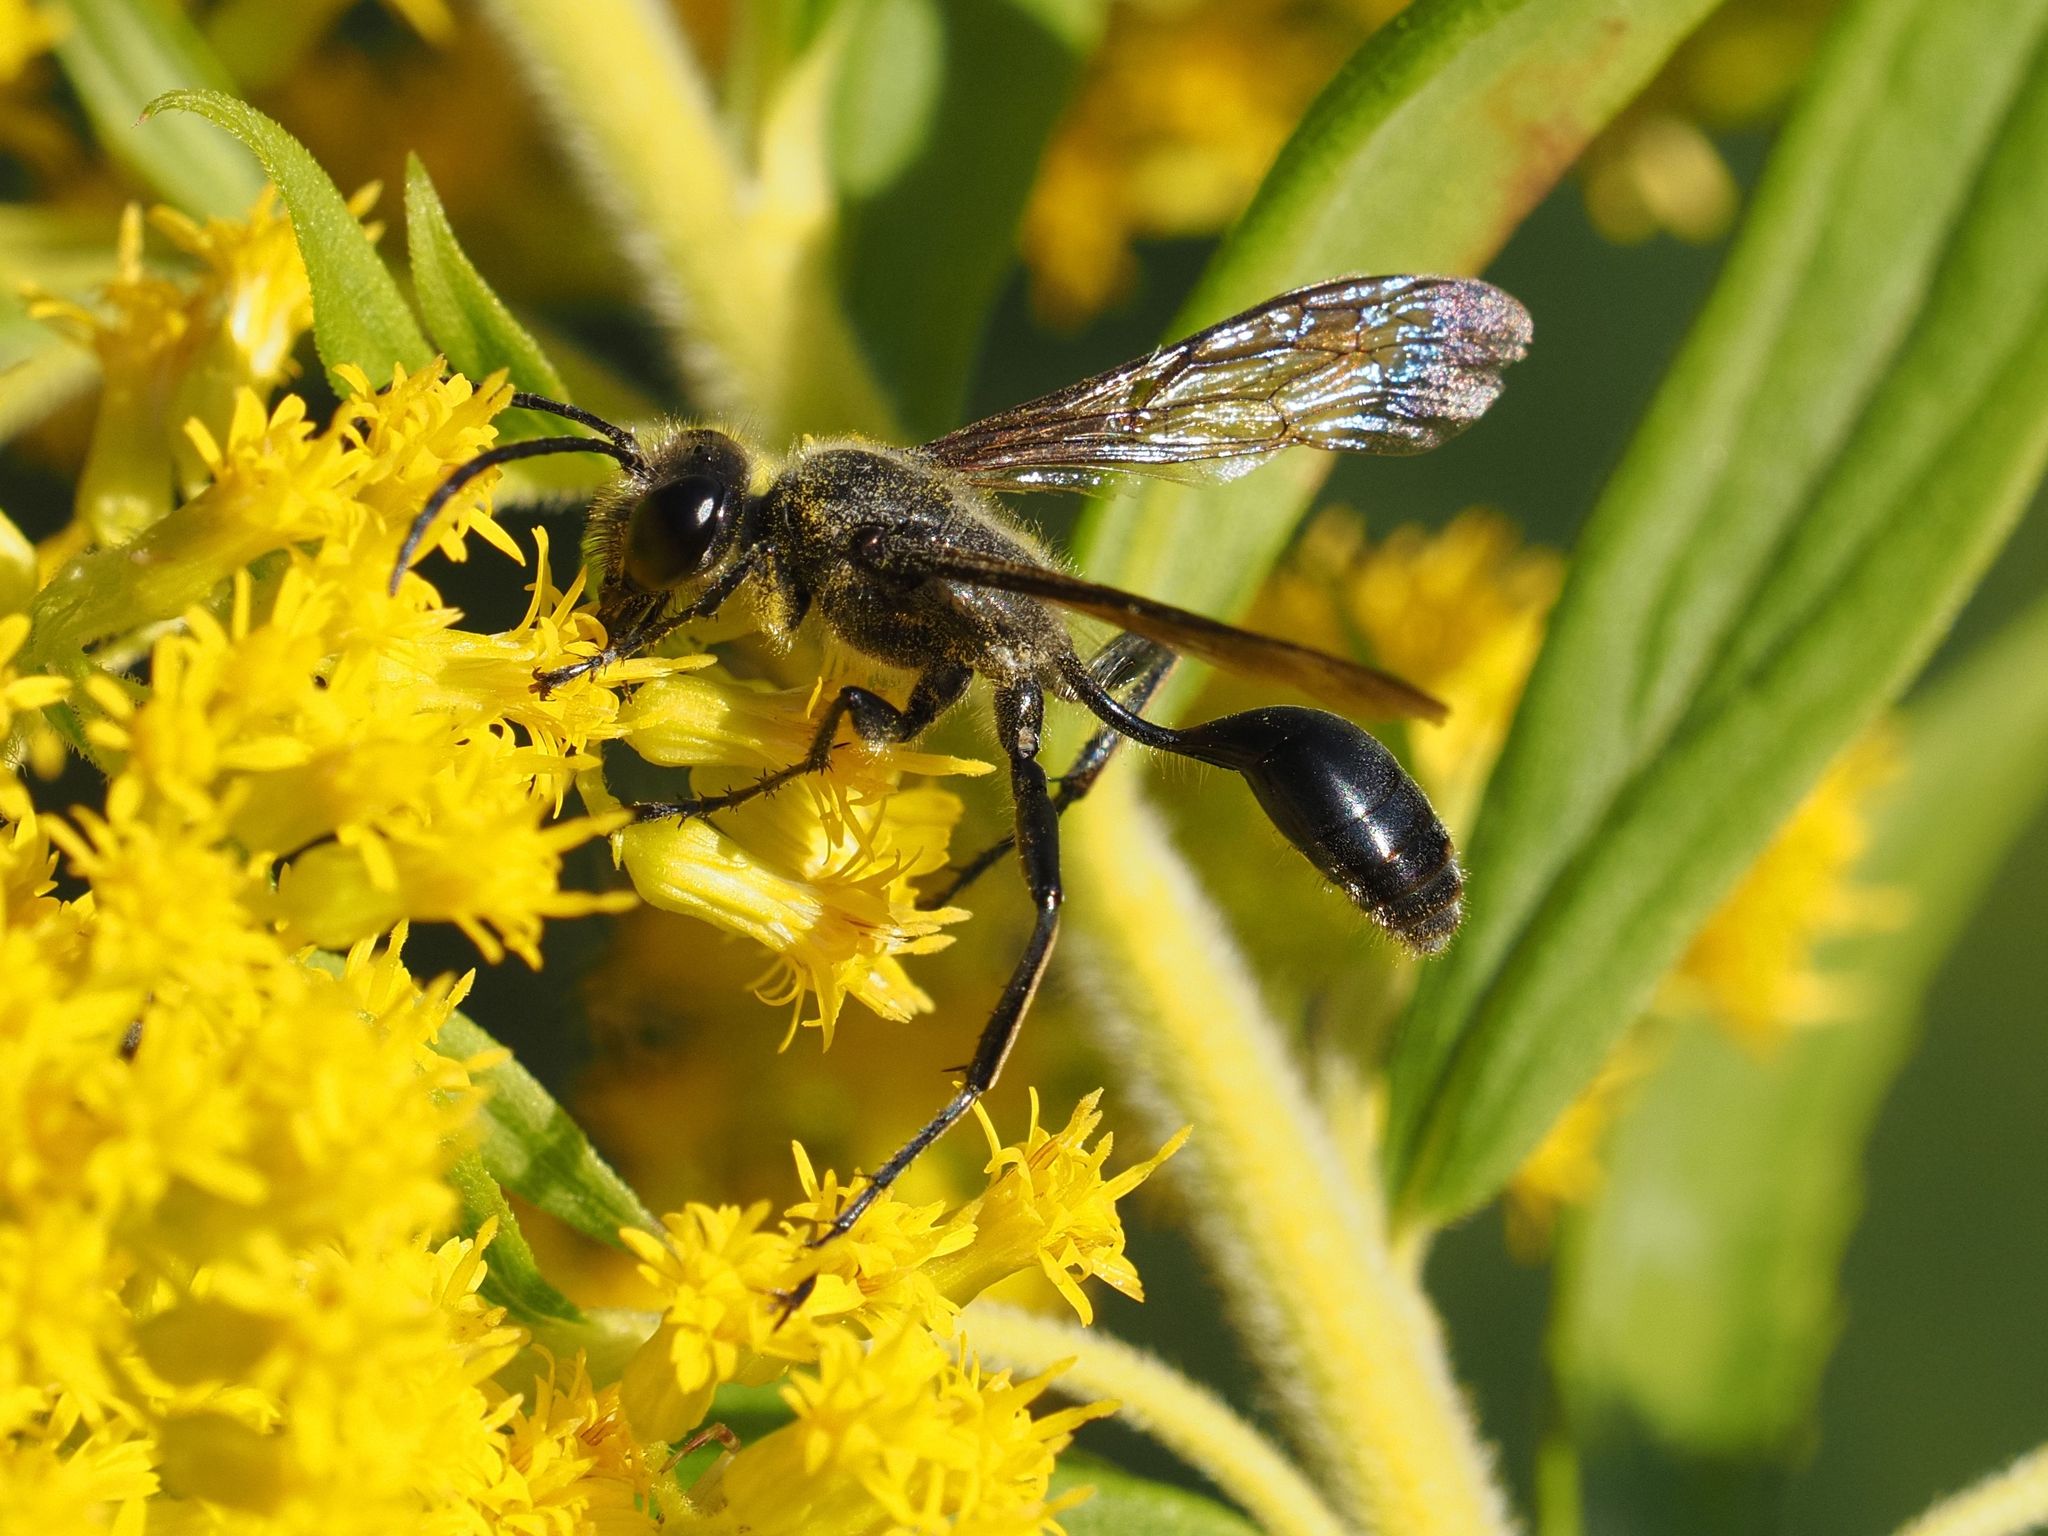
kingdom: Animalia
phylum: Arthropoda
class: Insecta
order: Hymenoptera
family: Sphecidae
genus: Isodontia
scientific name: Isodontia mexicana
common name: Mud dauber
